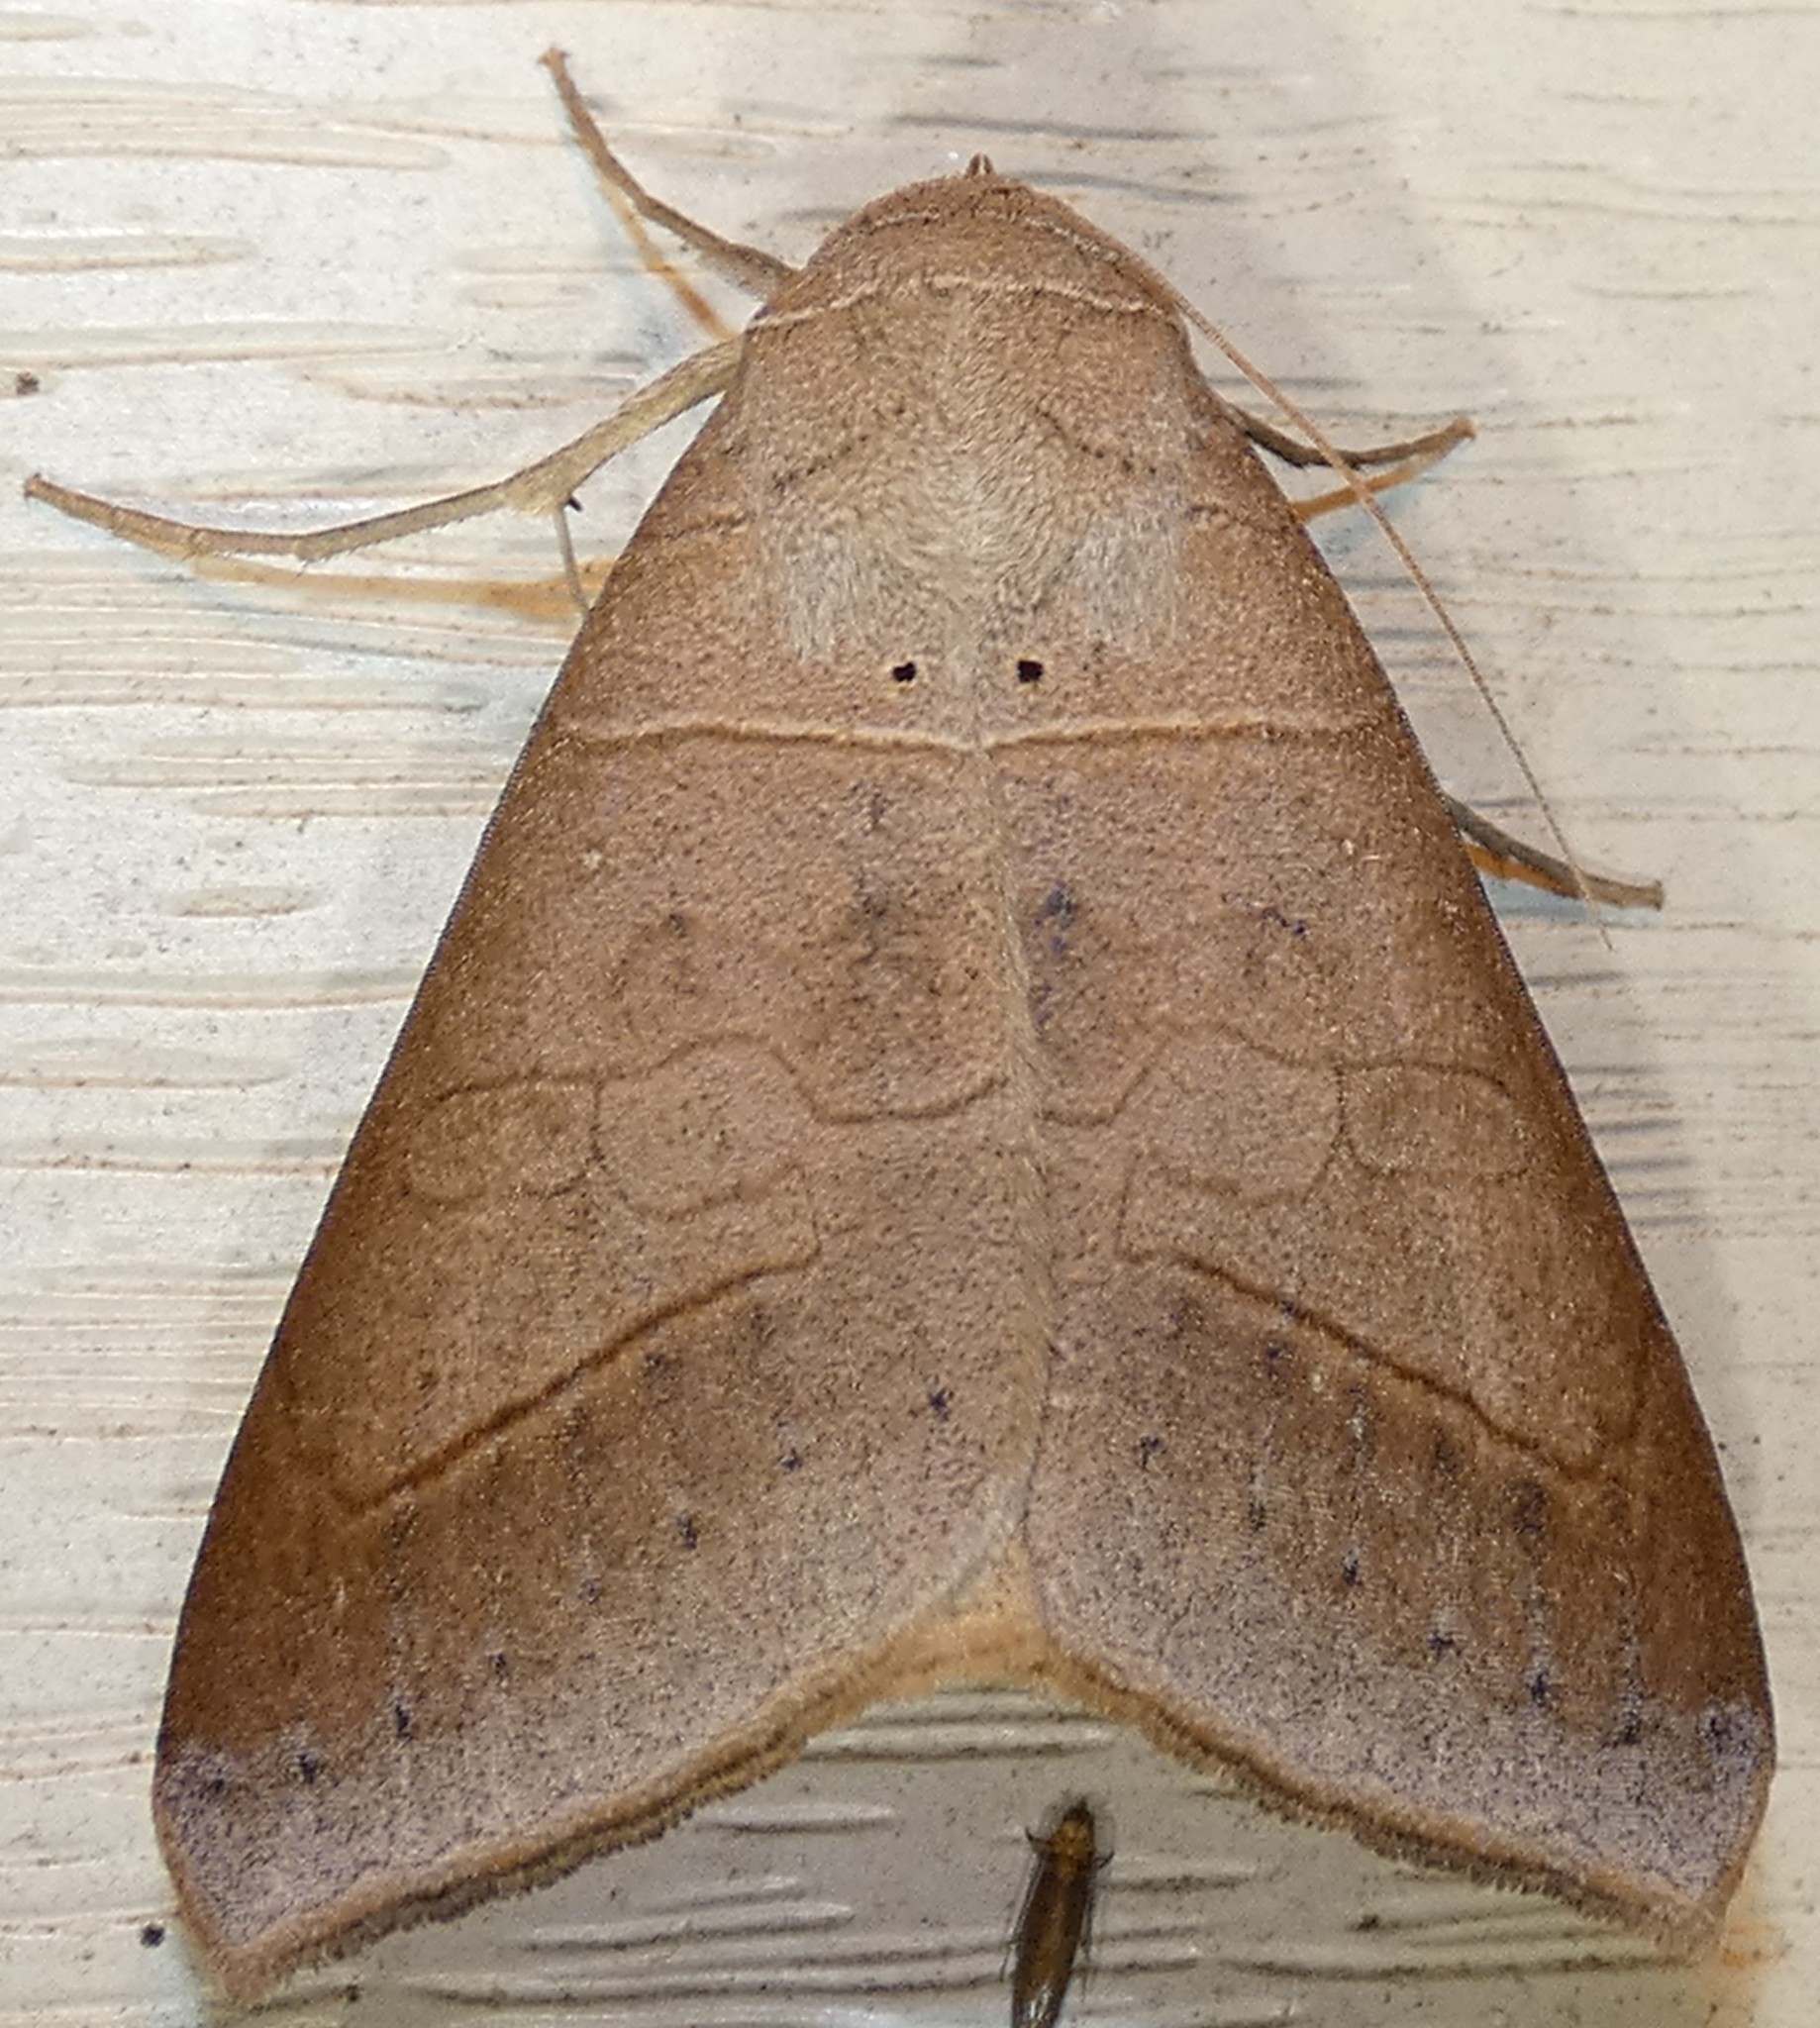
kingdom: Animalia
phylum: Arthropoda
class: Insecta
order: Lepidoptera
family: Erebidae
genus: Mocis
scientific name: Mocis marcida
